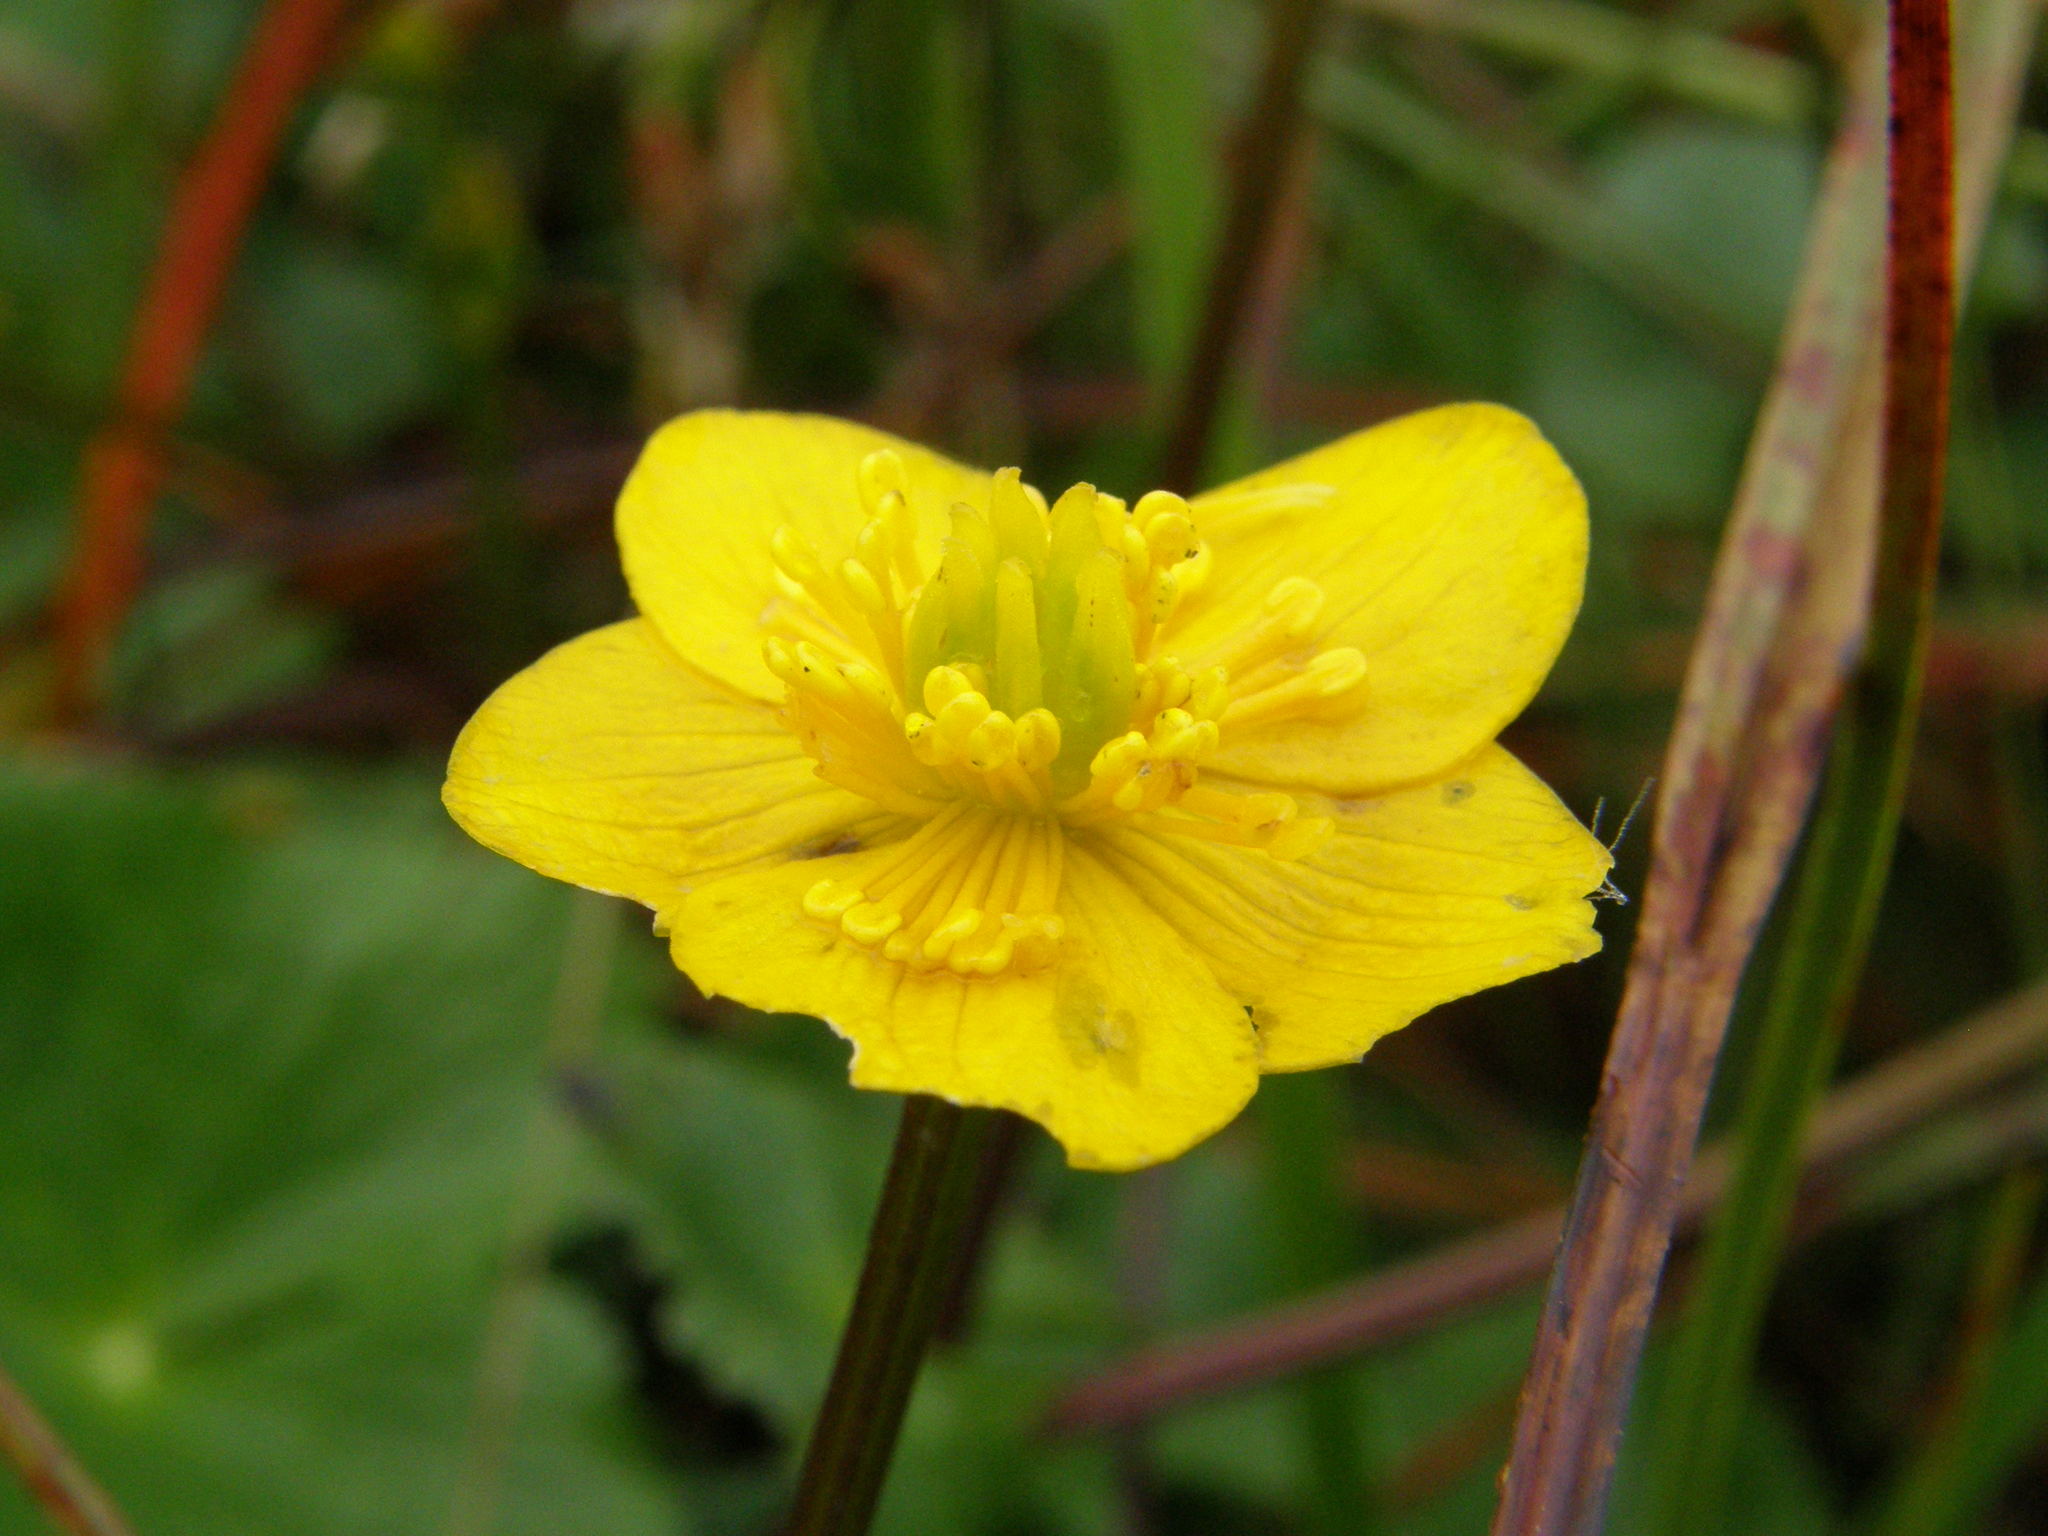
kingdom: Plantae
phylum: Tracheophyta
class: Magnoliopsida
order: Ranunculales
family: Ranunculaceae
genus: Caltha
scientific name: Caltha palustris
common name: Marsh marigold
